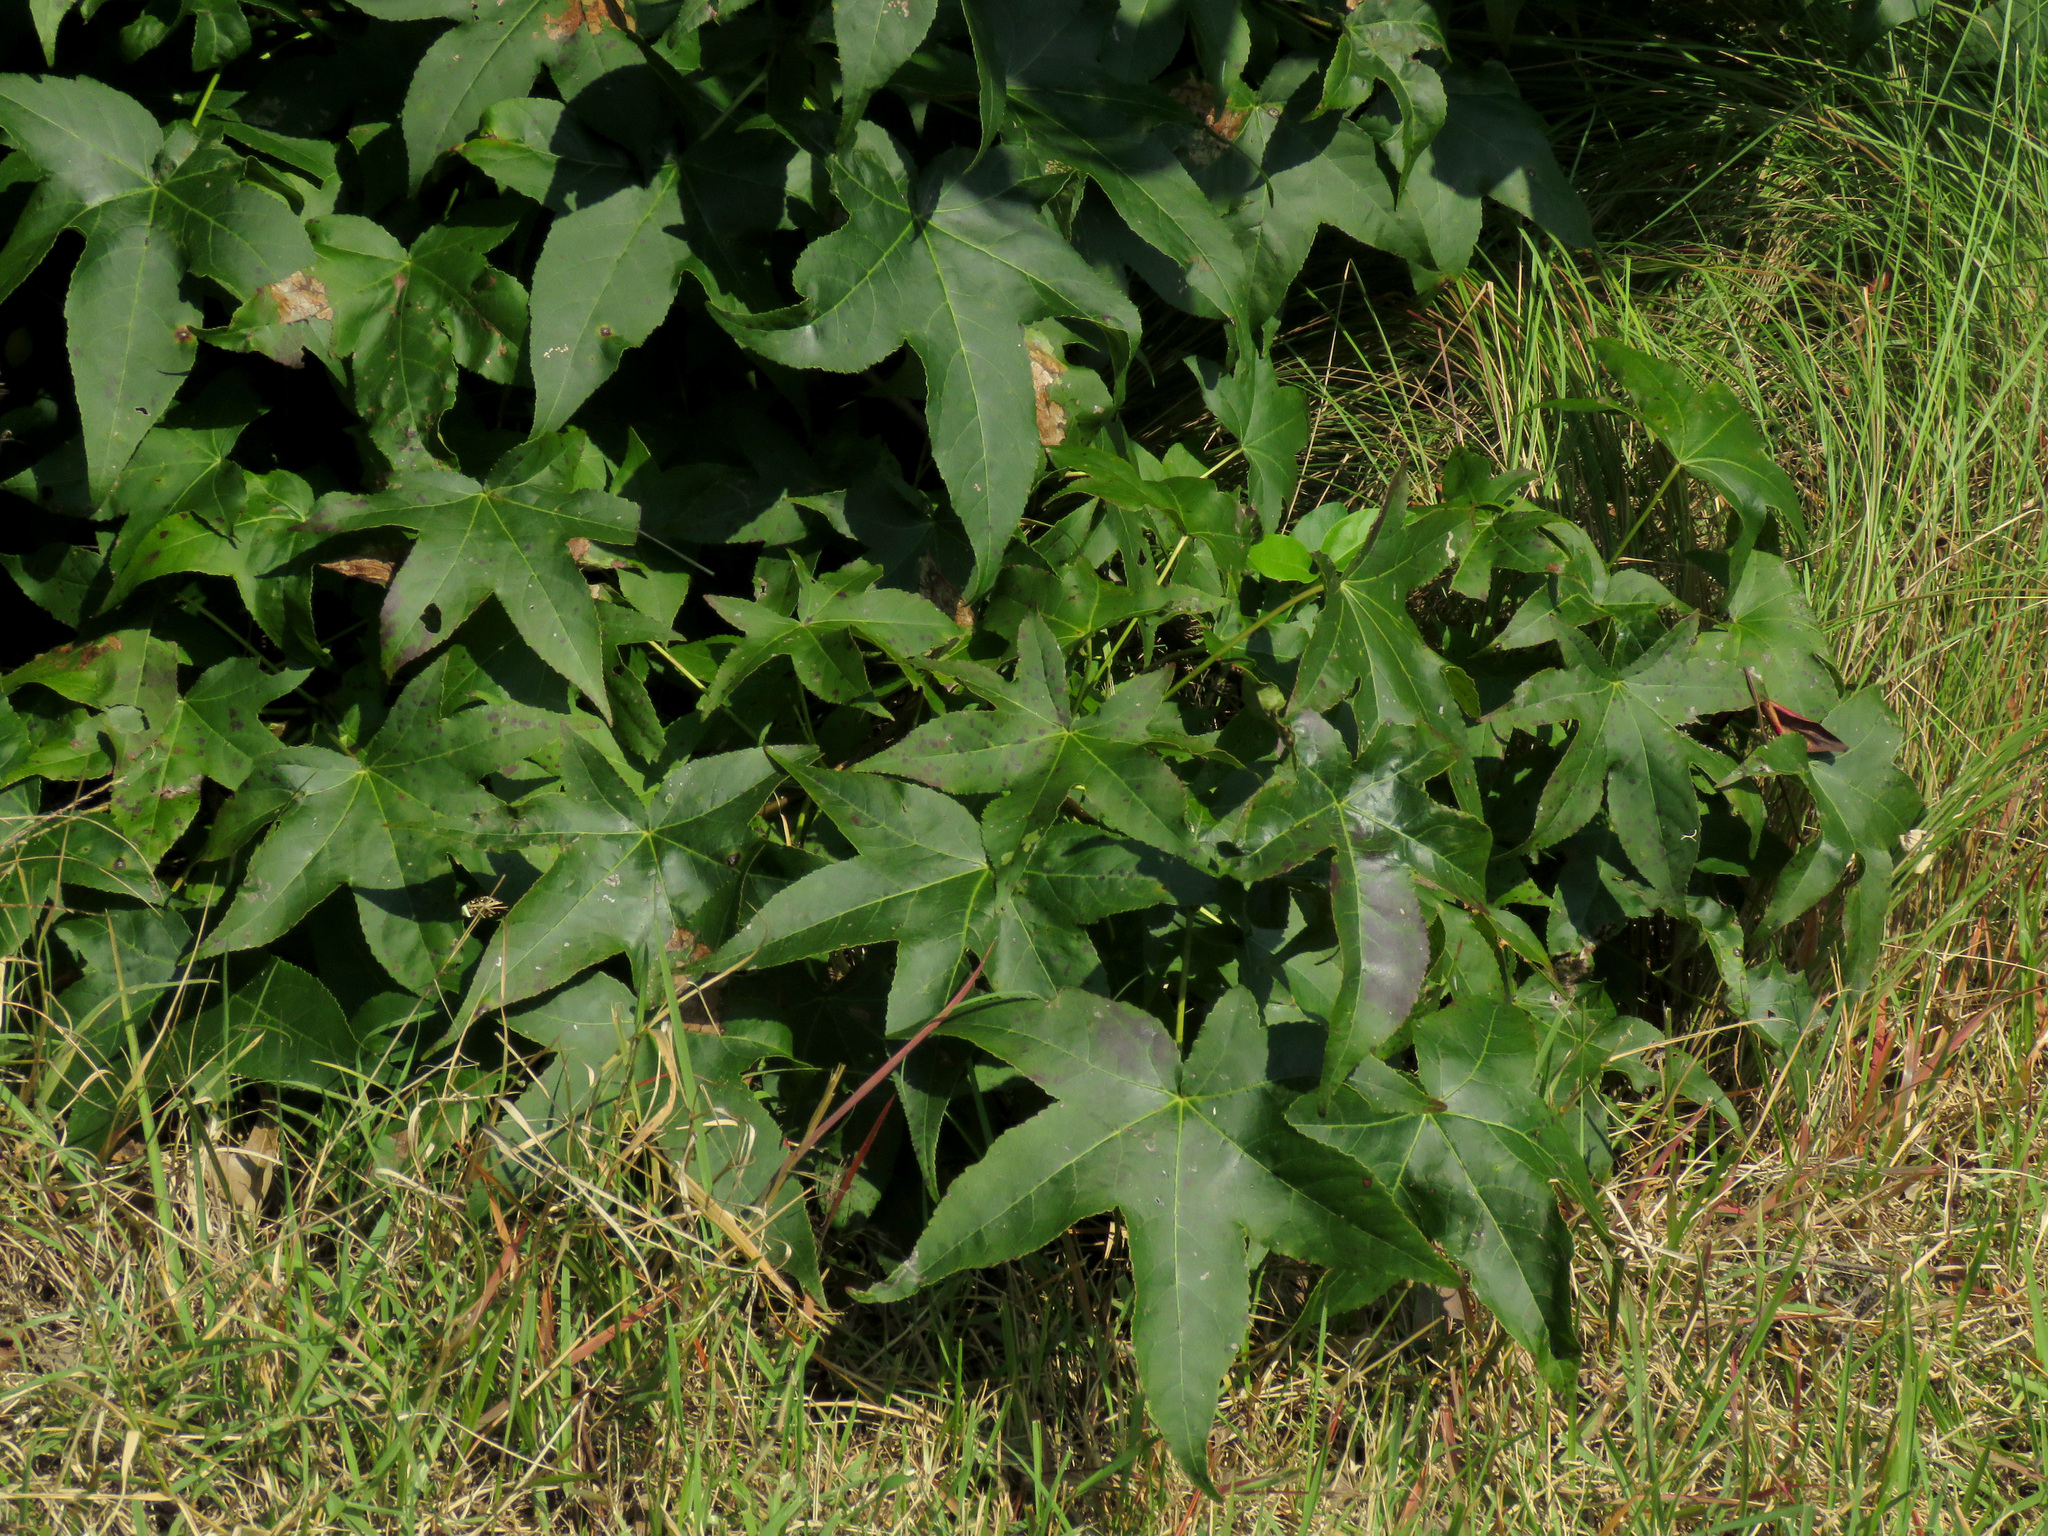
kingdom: Plantae
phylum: Tracheophyta
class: Magnoliopsida
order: Saxifragales
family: Altingiaceae
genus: Liquidambar
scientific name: Liquidambar styraciflua
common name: Sweet gum
